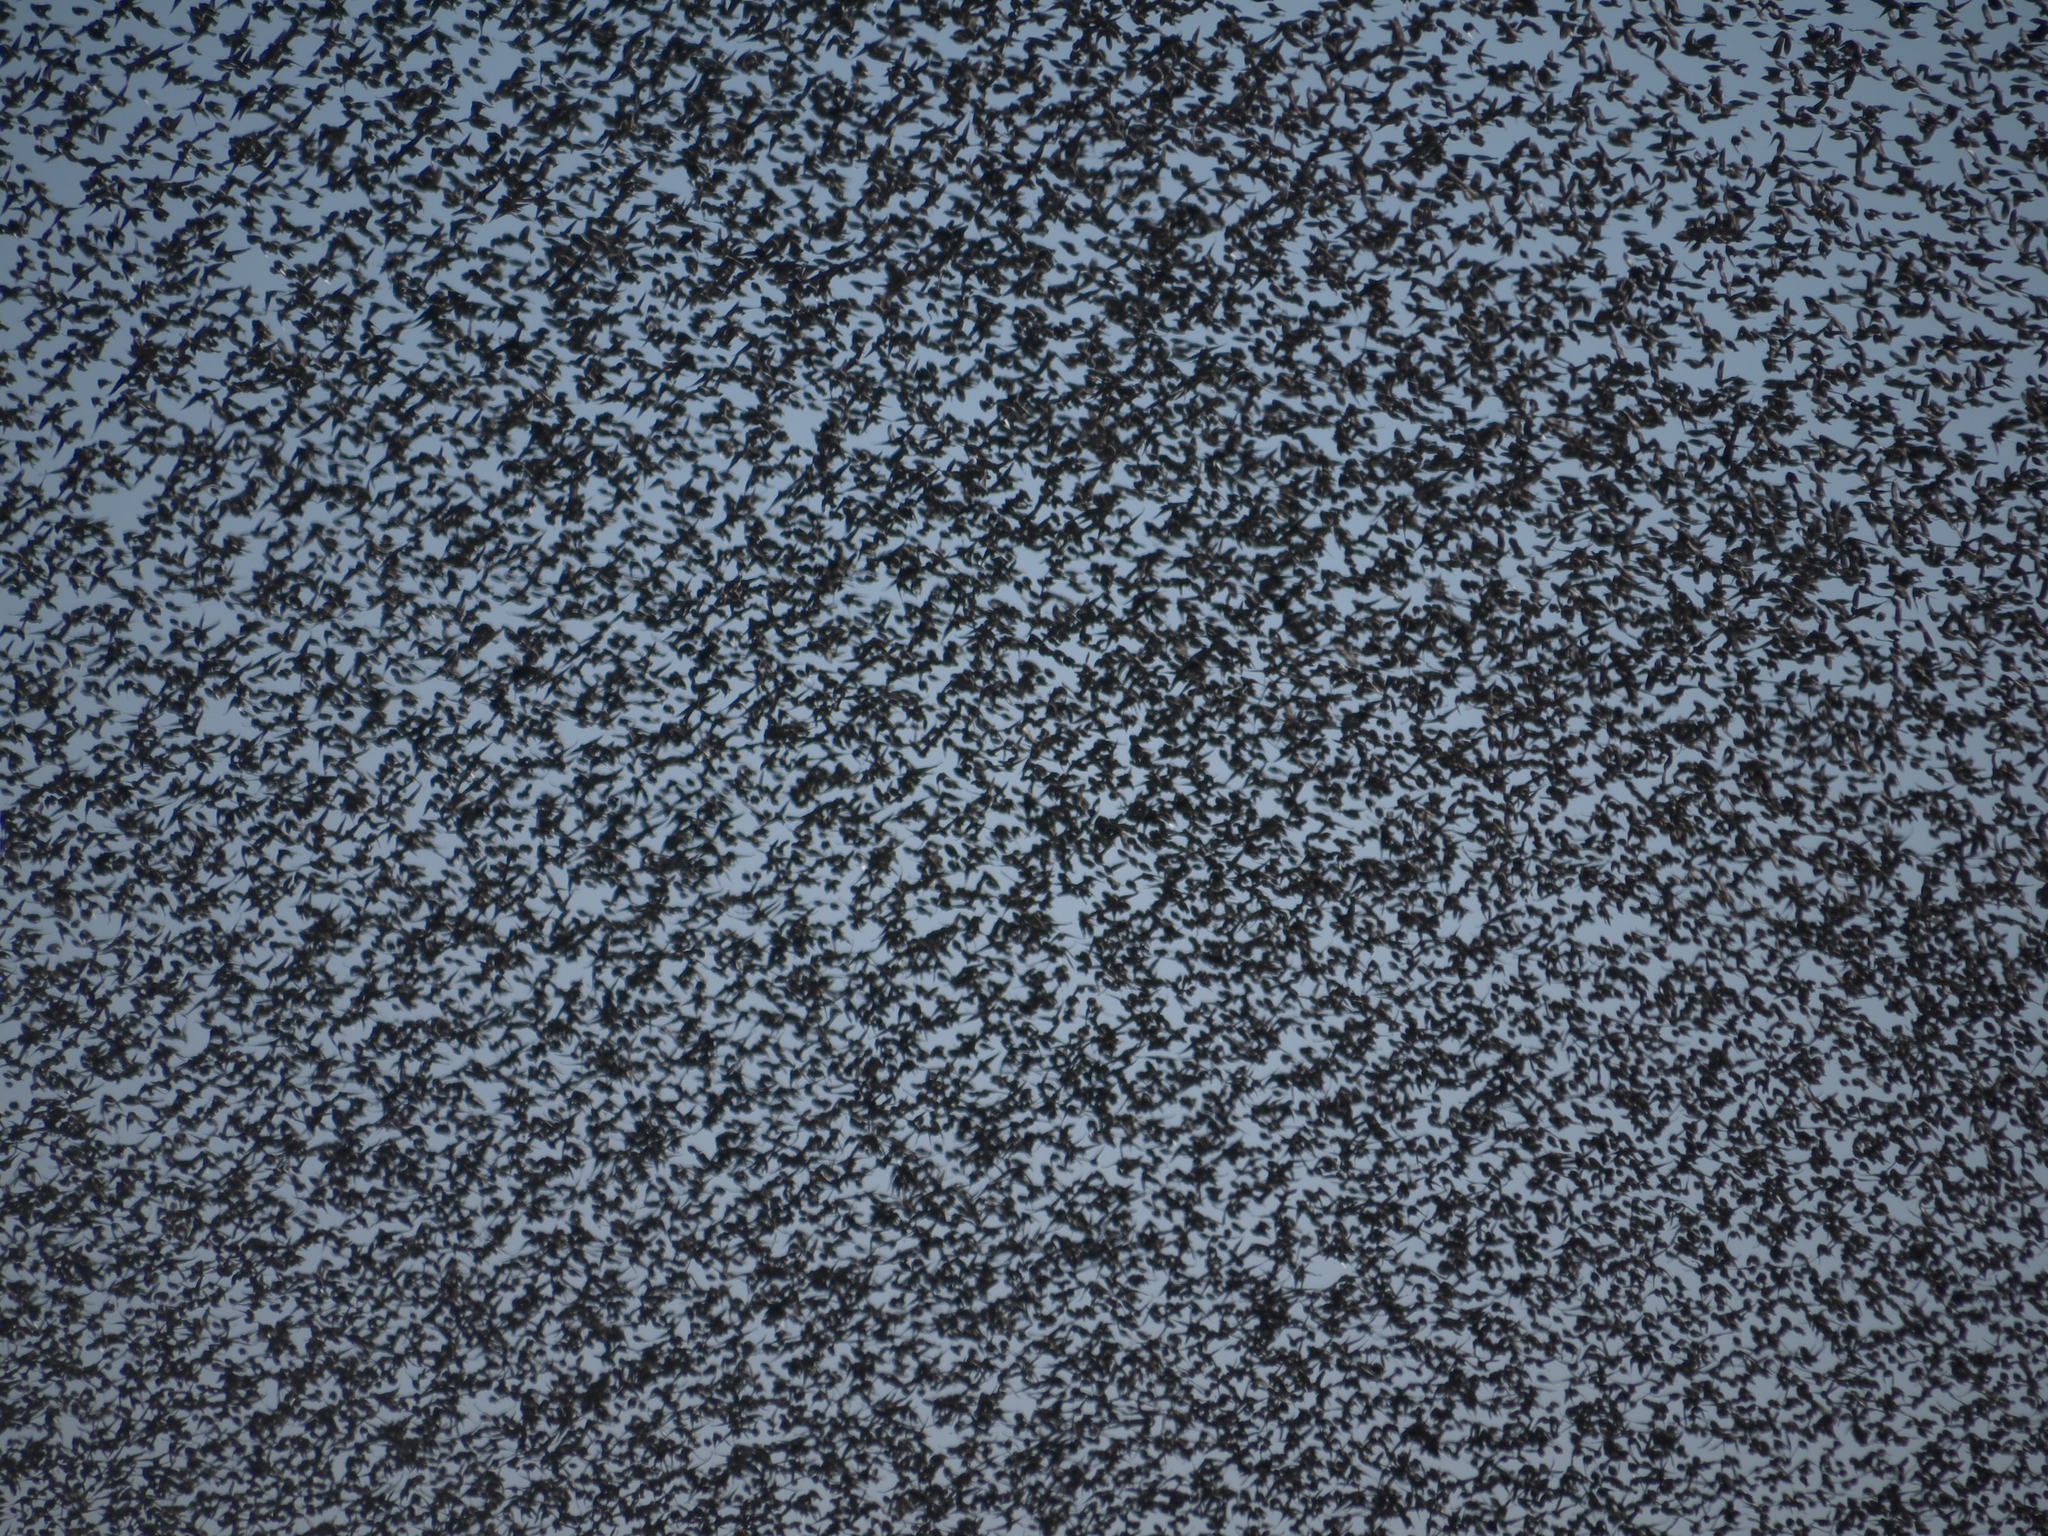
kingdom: Animalia
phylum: Chordata
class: Aves
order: Passeriformes
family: Icteridae
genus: Agelaius
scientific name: Agelaius phoeniceus
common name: Red-winged blackbird
